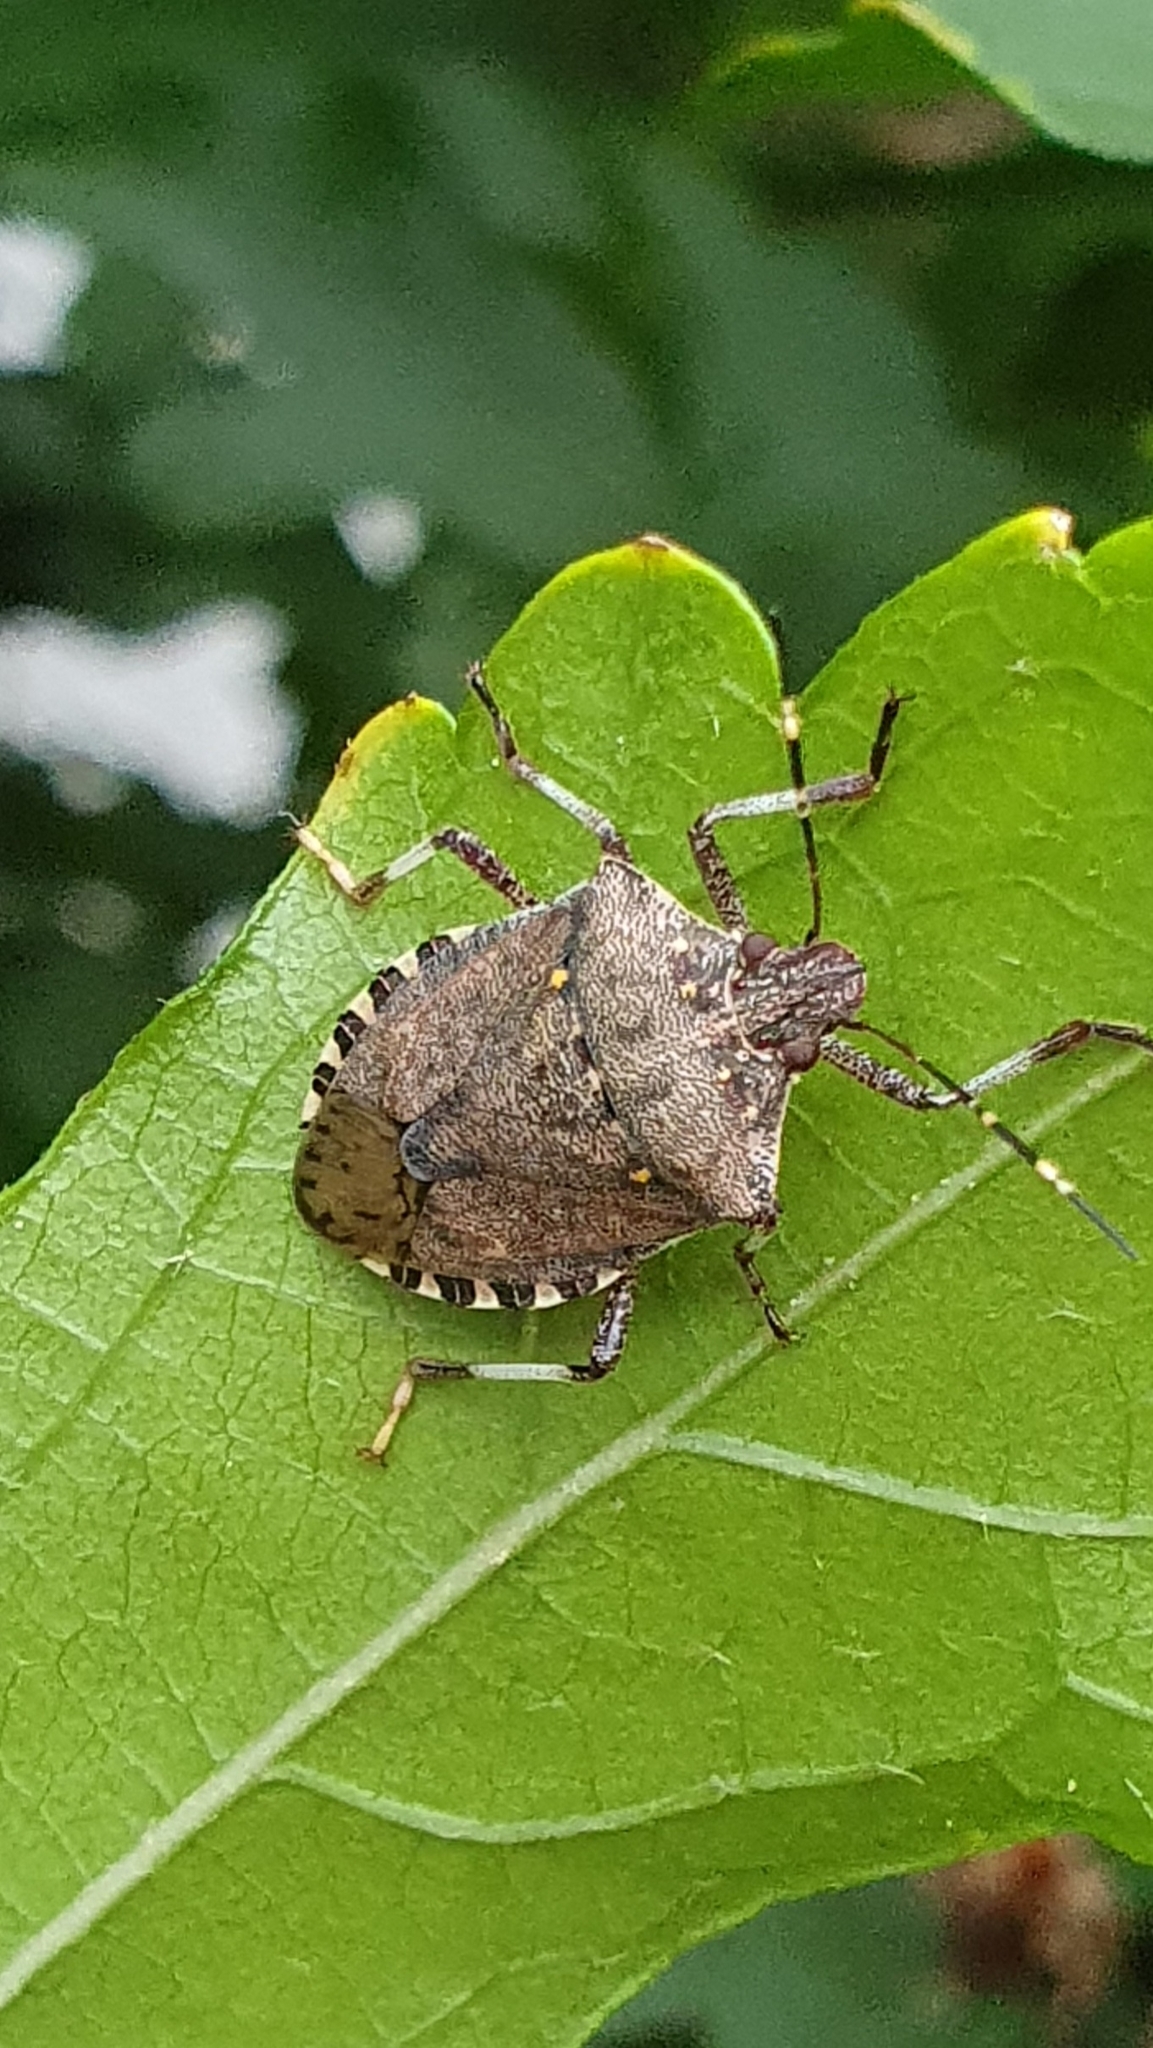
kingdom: Animalia
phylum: Arthropoda
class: Insecta
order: Hemiptera
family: Pentatomidae
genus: Halyomorpha
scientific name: Halyomorpha halys
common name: Brown marmorated stink bug
